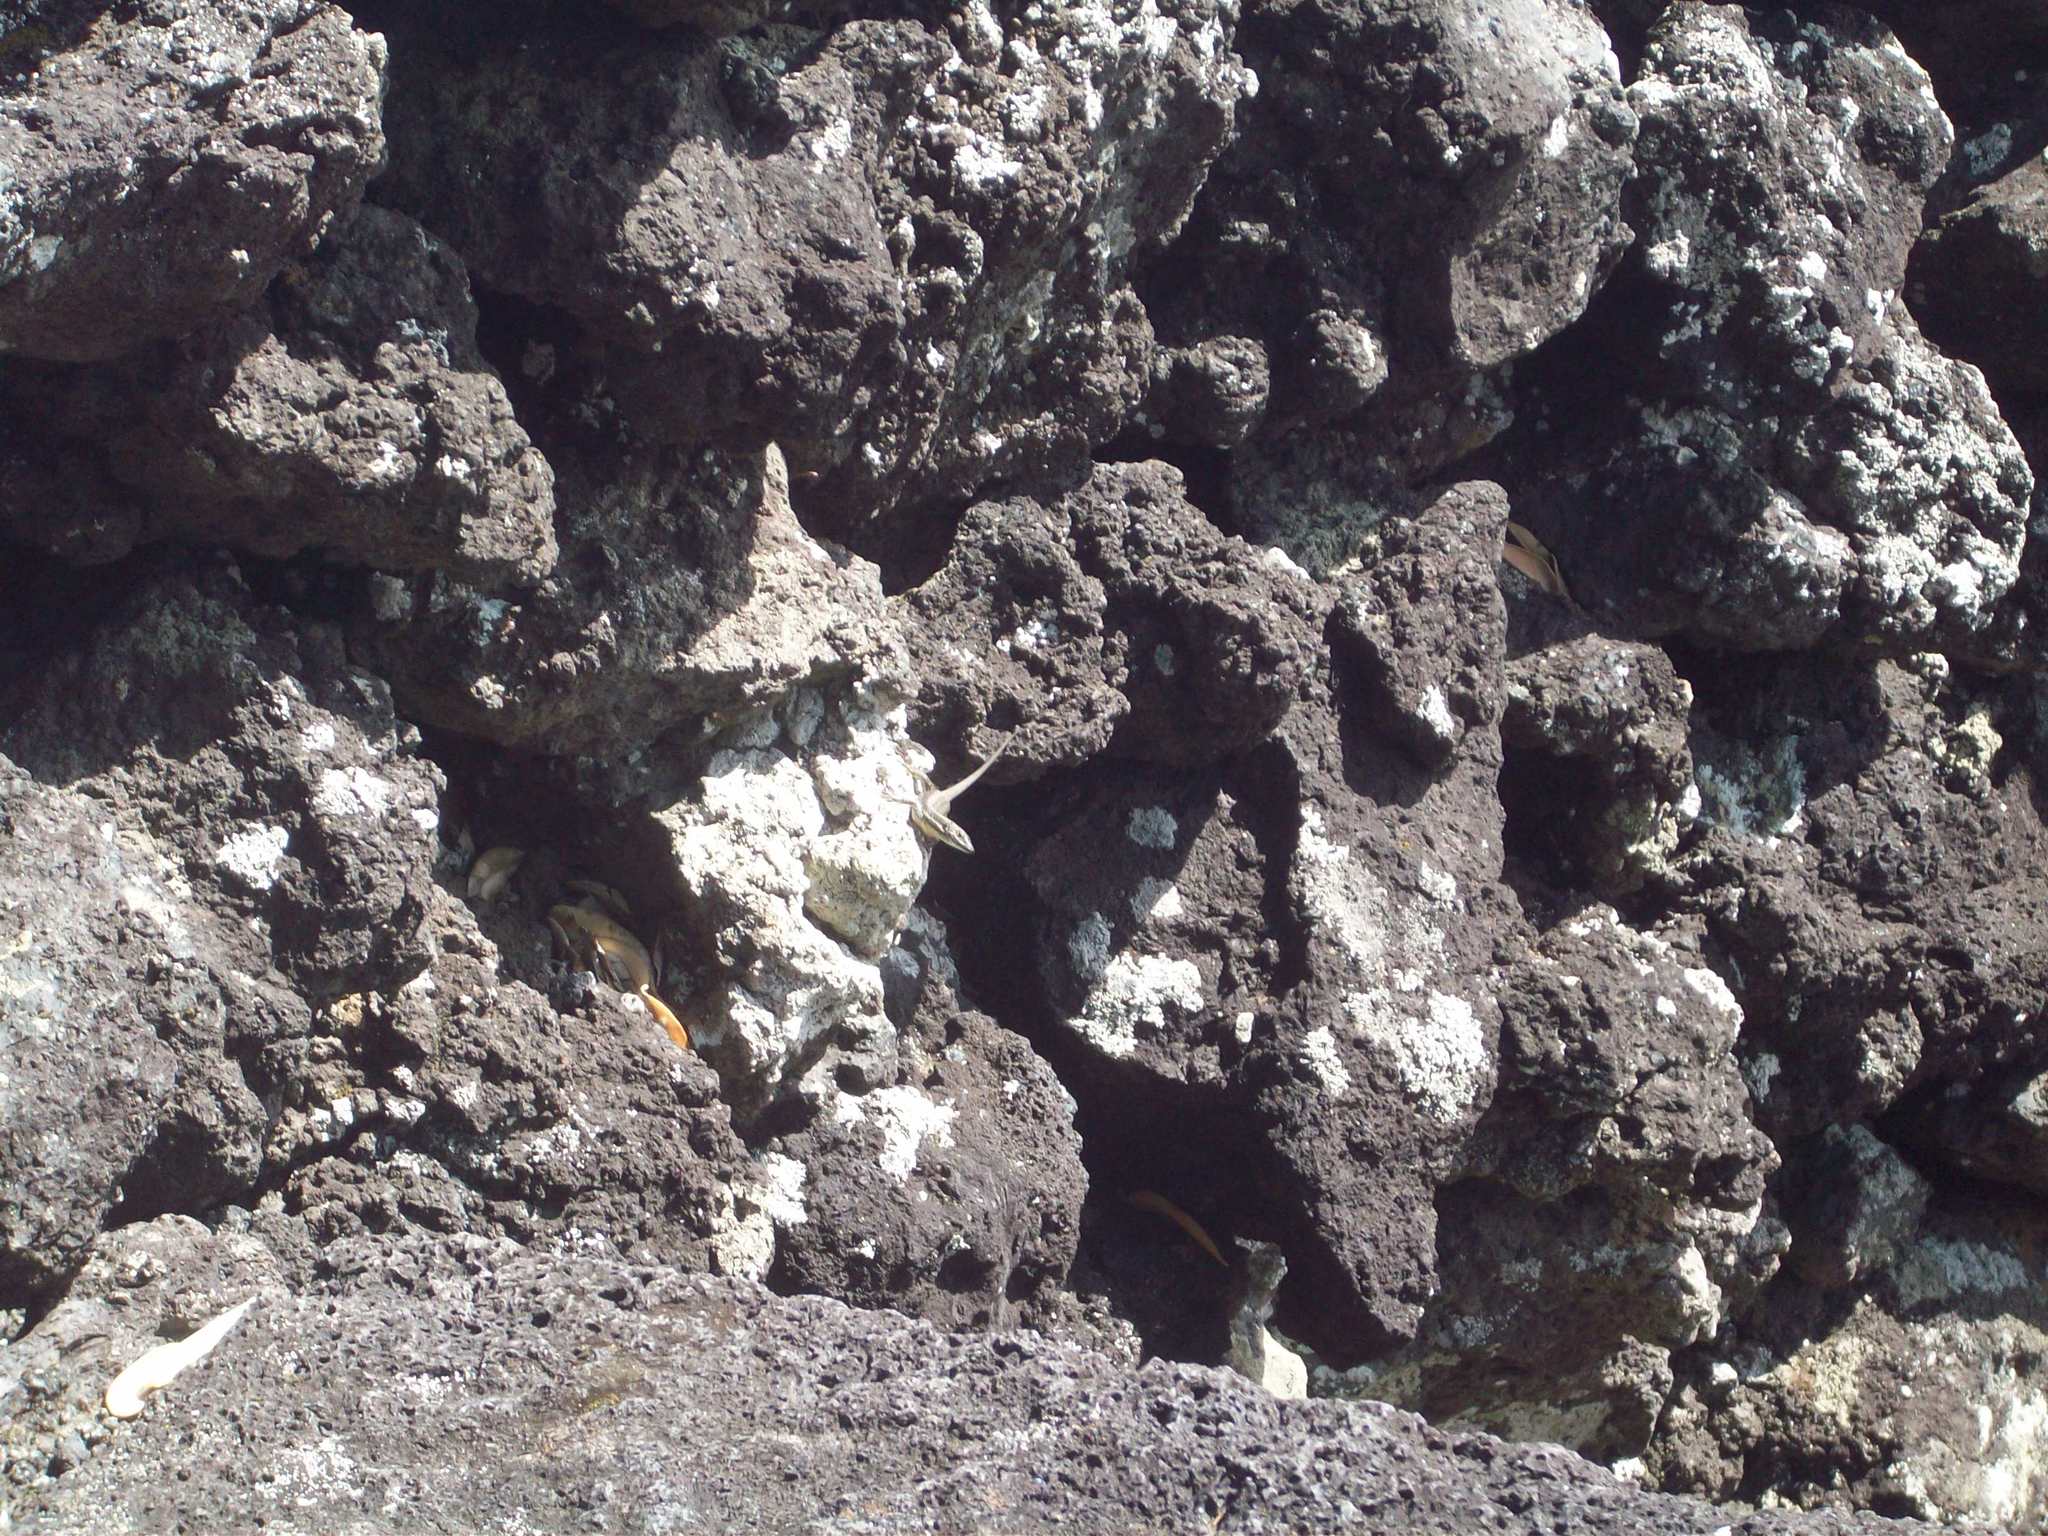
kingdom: Animalia
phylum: Chordata
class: Squamata
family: Lacertidae
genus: Teira
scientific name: Teira dugesii
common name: Madeira lizard
